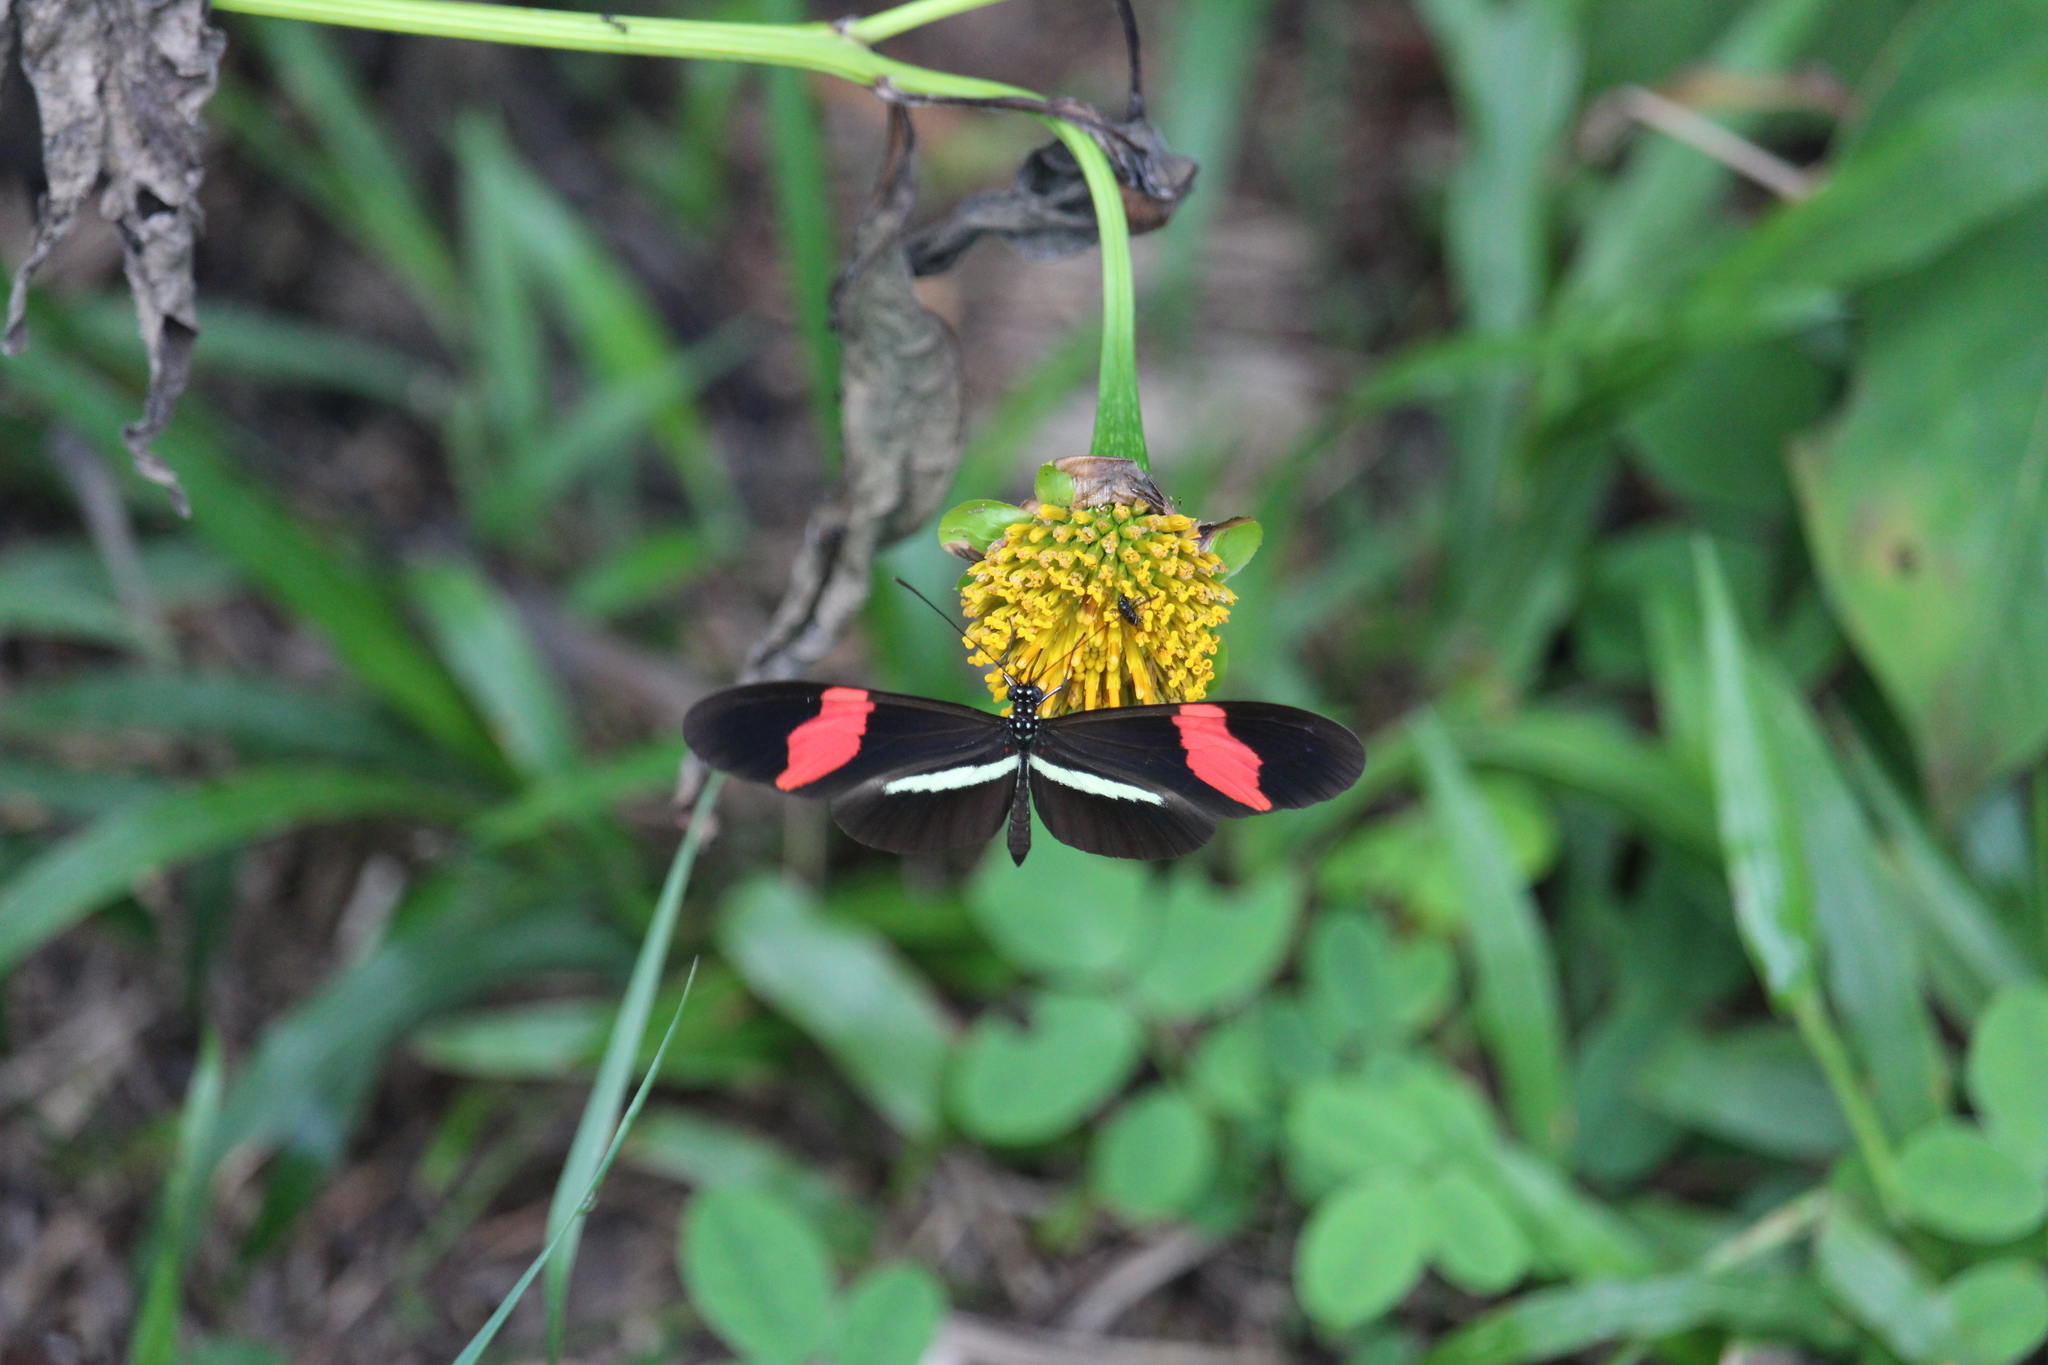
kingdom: Animalia
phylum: Arthropoda
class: Insecta
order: Lepidoptera
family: Nymphalidae
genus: Heliconius
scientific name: Heliconius erato
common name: Common patch longwing
